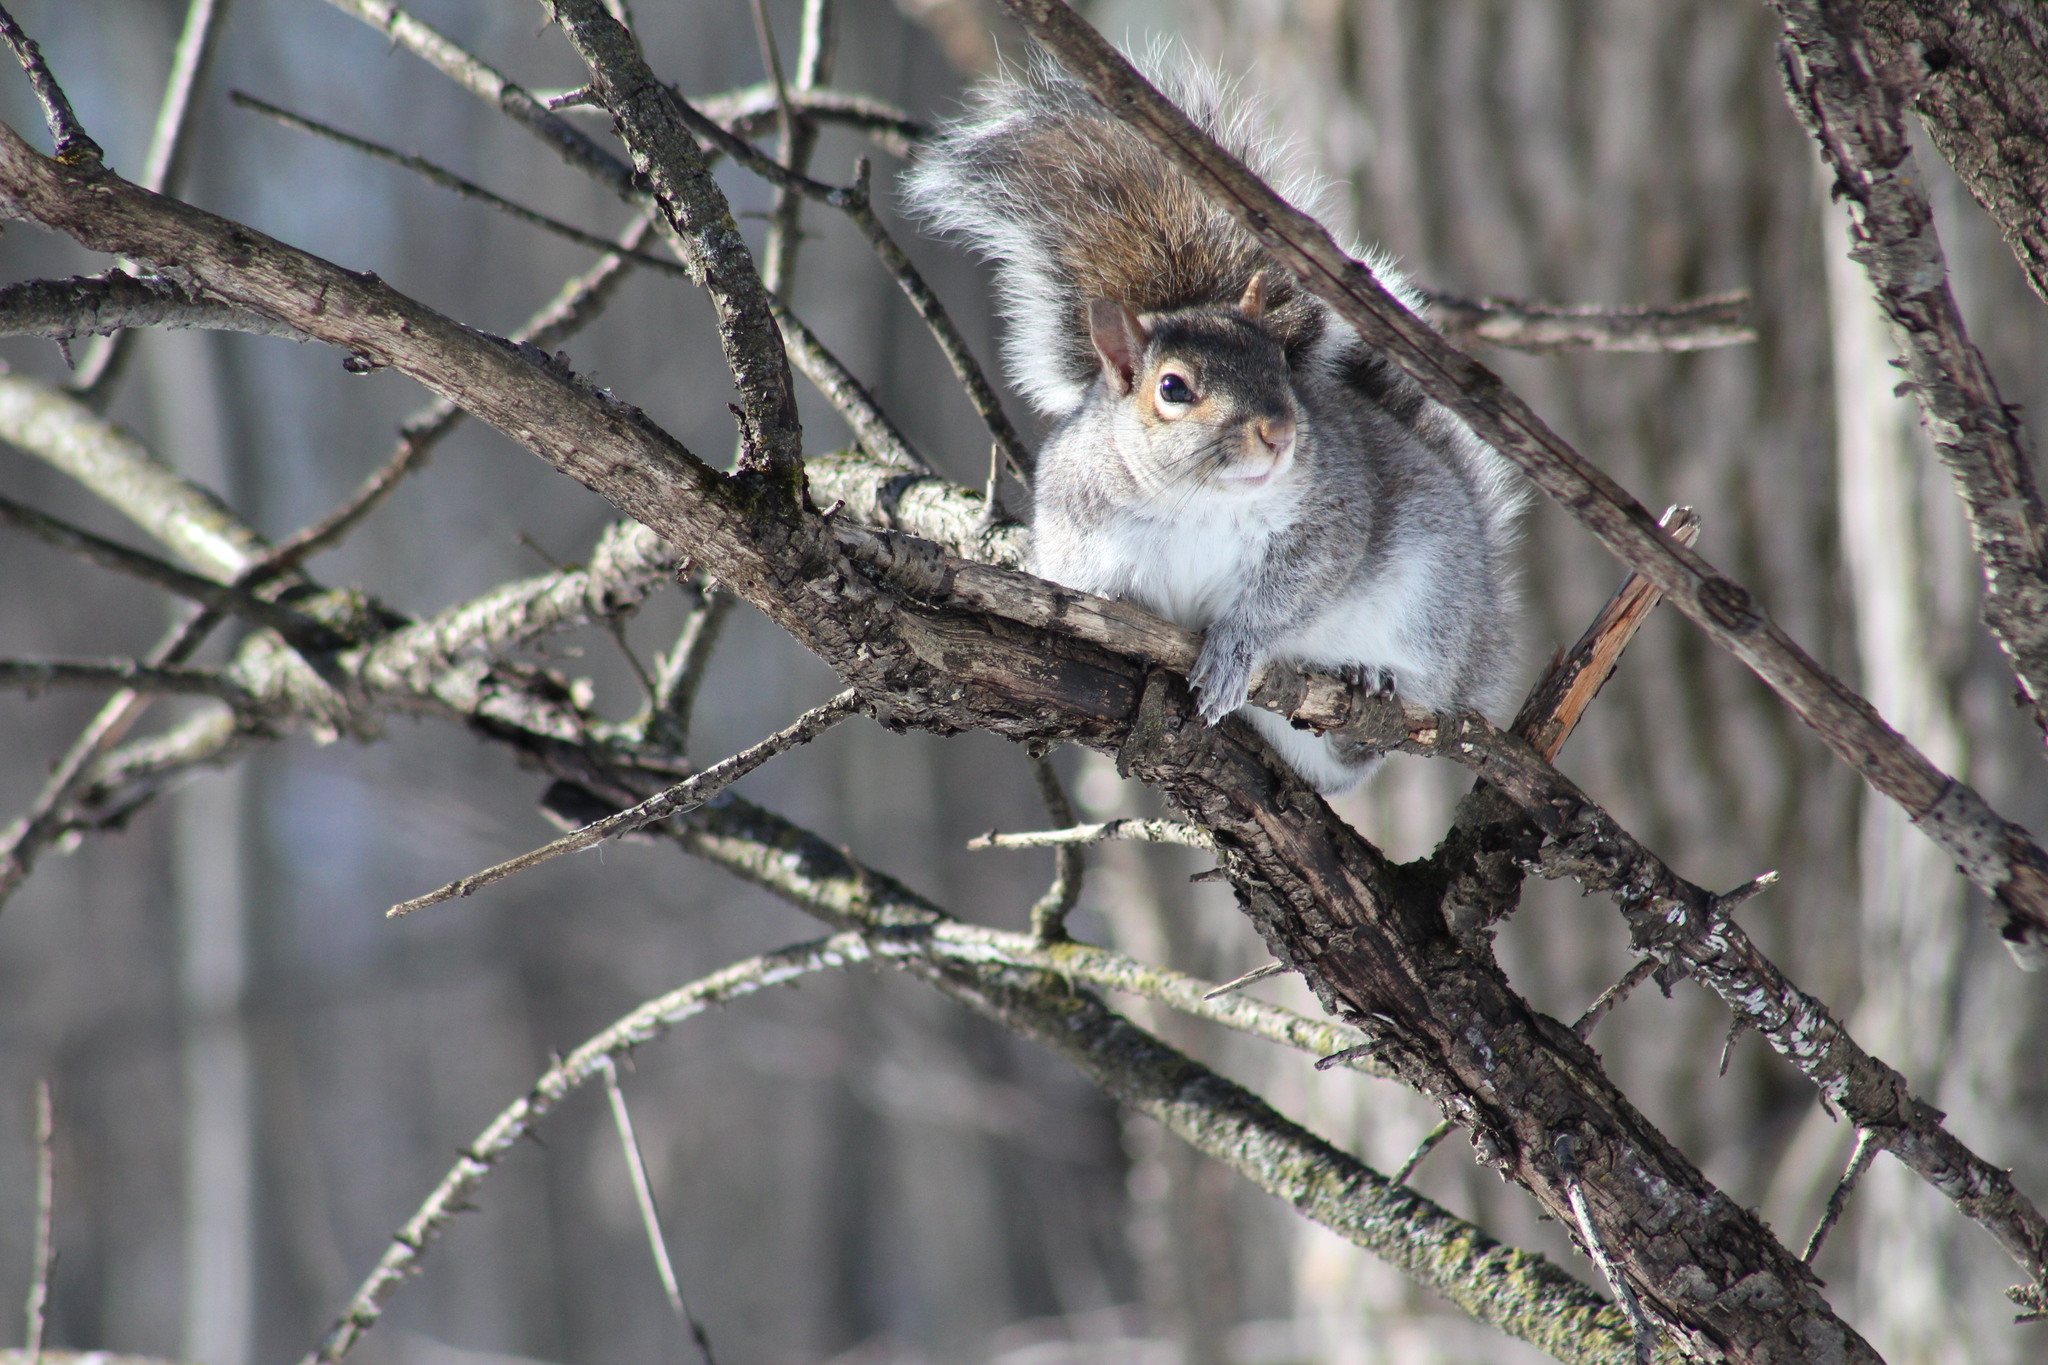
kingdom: Animalia
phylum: Chordata
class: Mammalia
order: Rodentia
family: Sciuridae
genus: Sciurus
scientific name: Sciurus carolinensis
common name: Eastern gray squirrel
